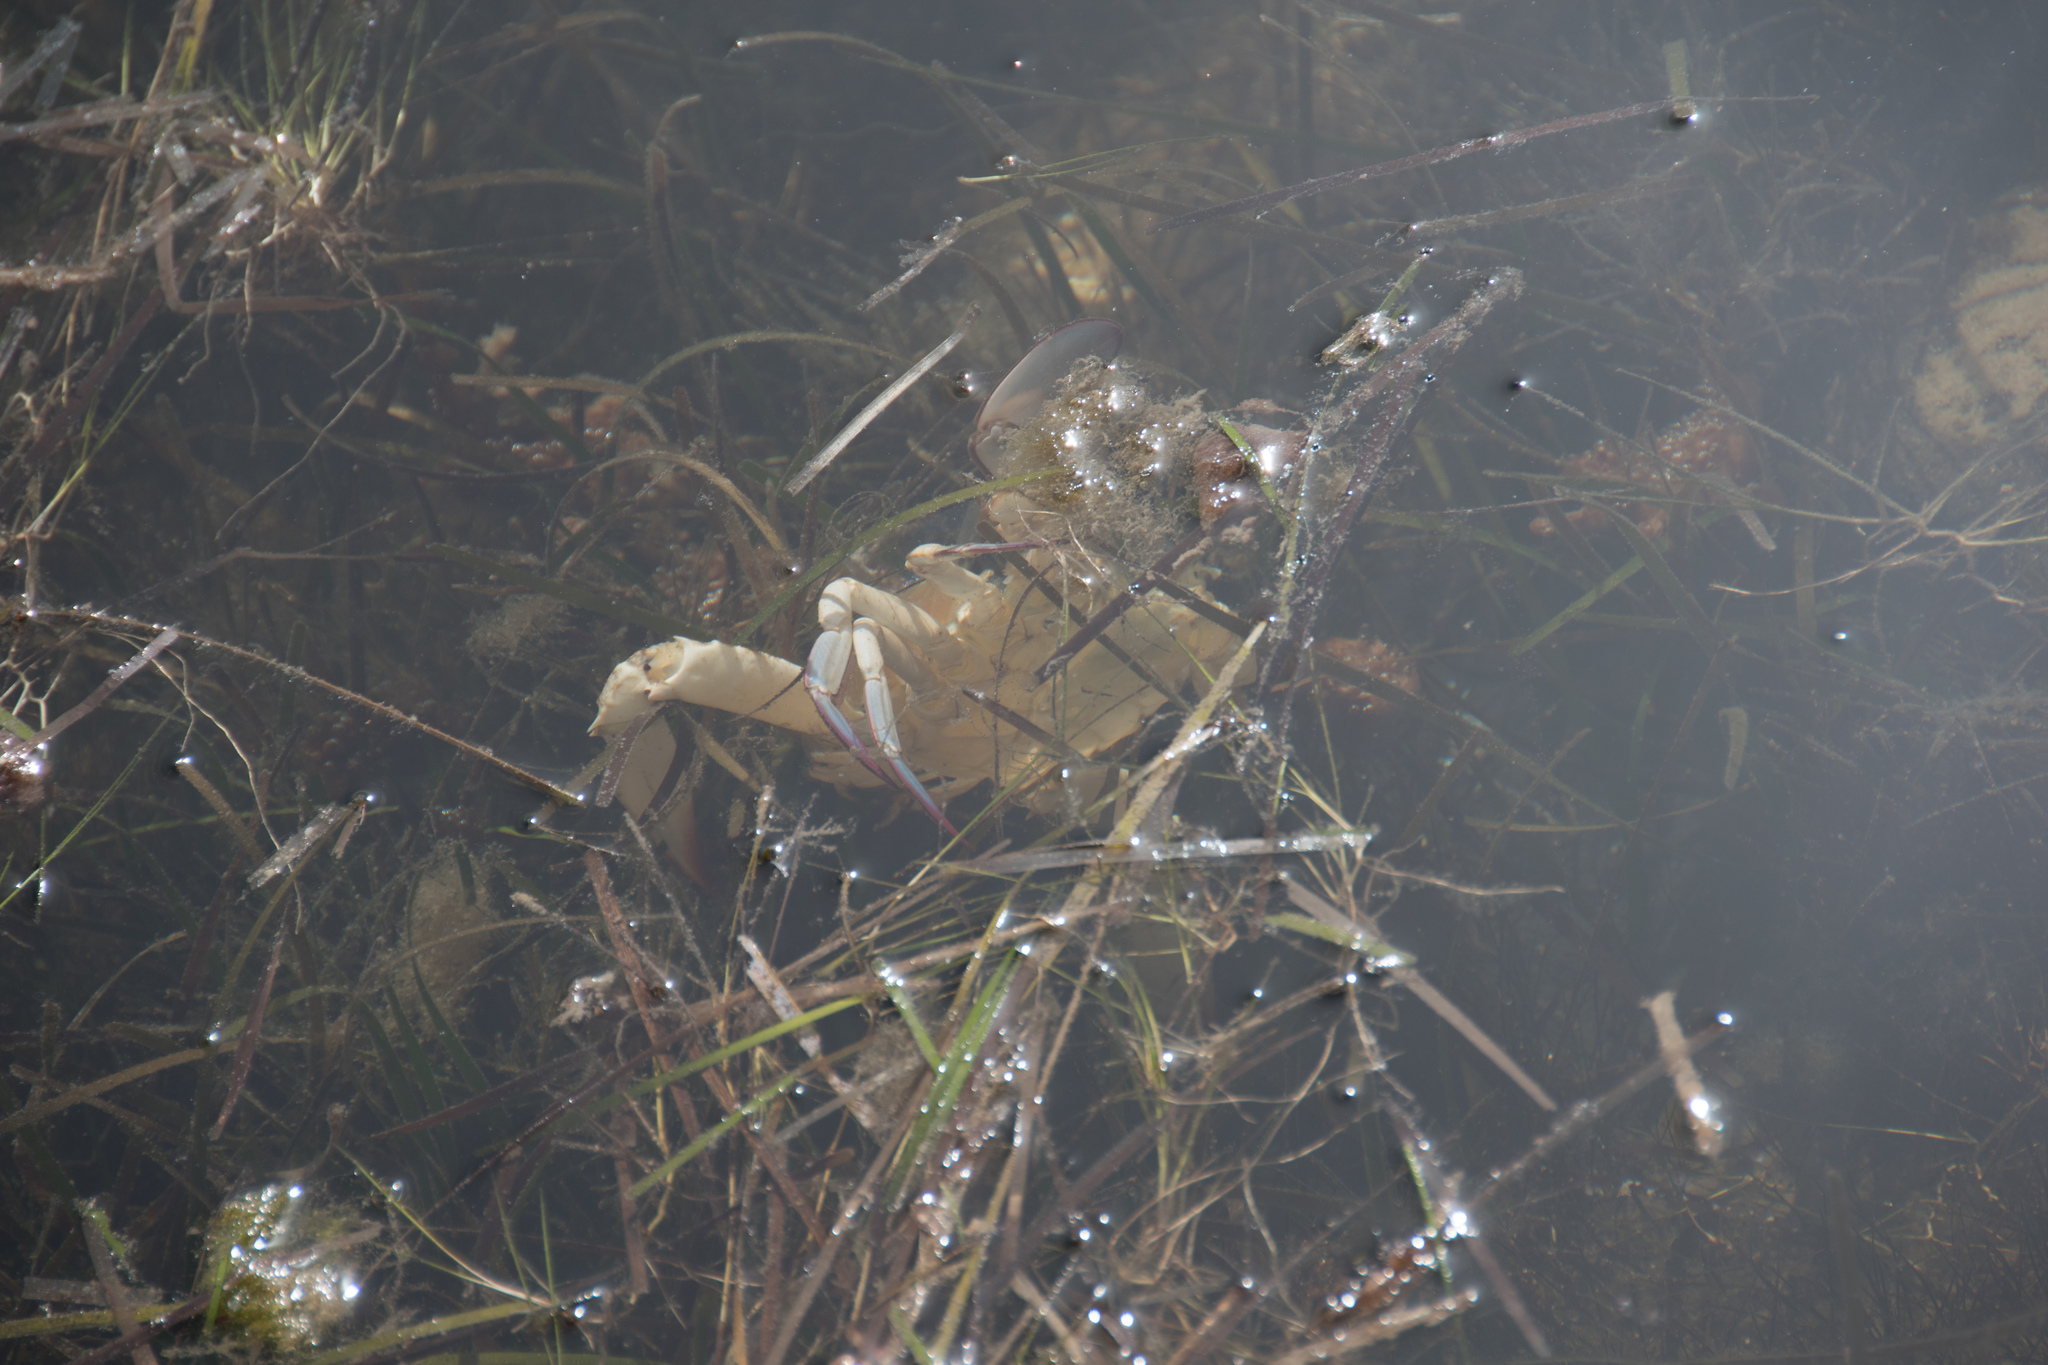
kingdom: Animalia
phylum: Arthropoda
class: Malacostraca
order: Decapoda
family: Portunidae
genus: Portunus
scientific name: Portunus segnis
